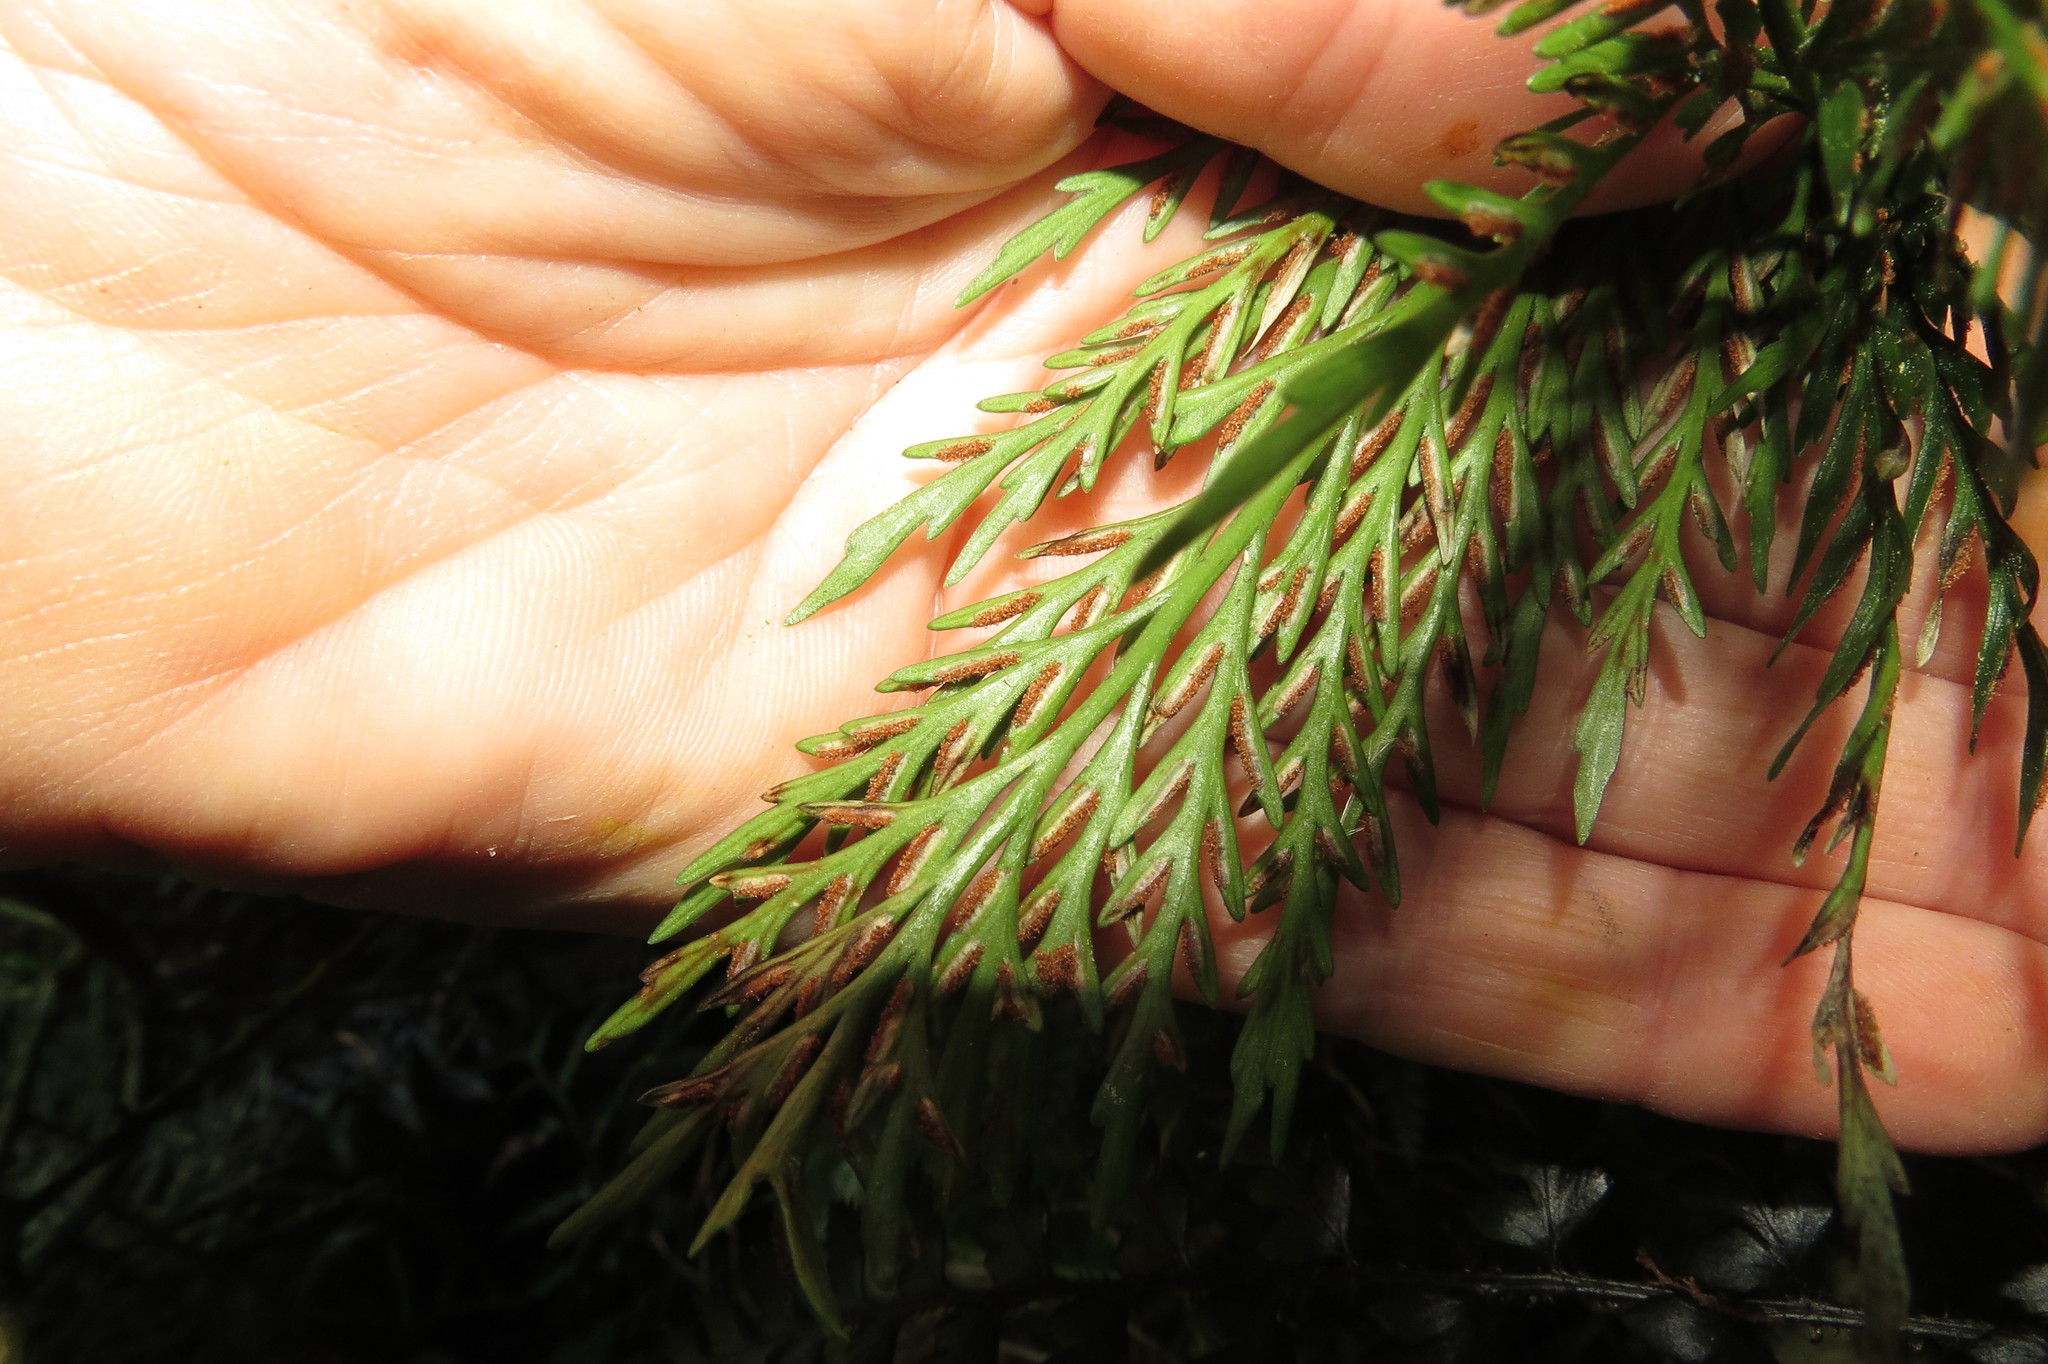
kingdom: Plantae
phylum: Tracheophyta
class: Polypodiopsida
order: Polypodiales
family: Aspleniaceae
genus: Asplenium
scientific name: Asplenium flaccidum
